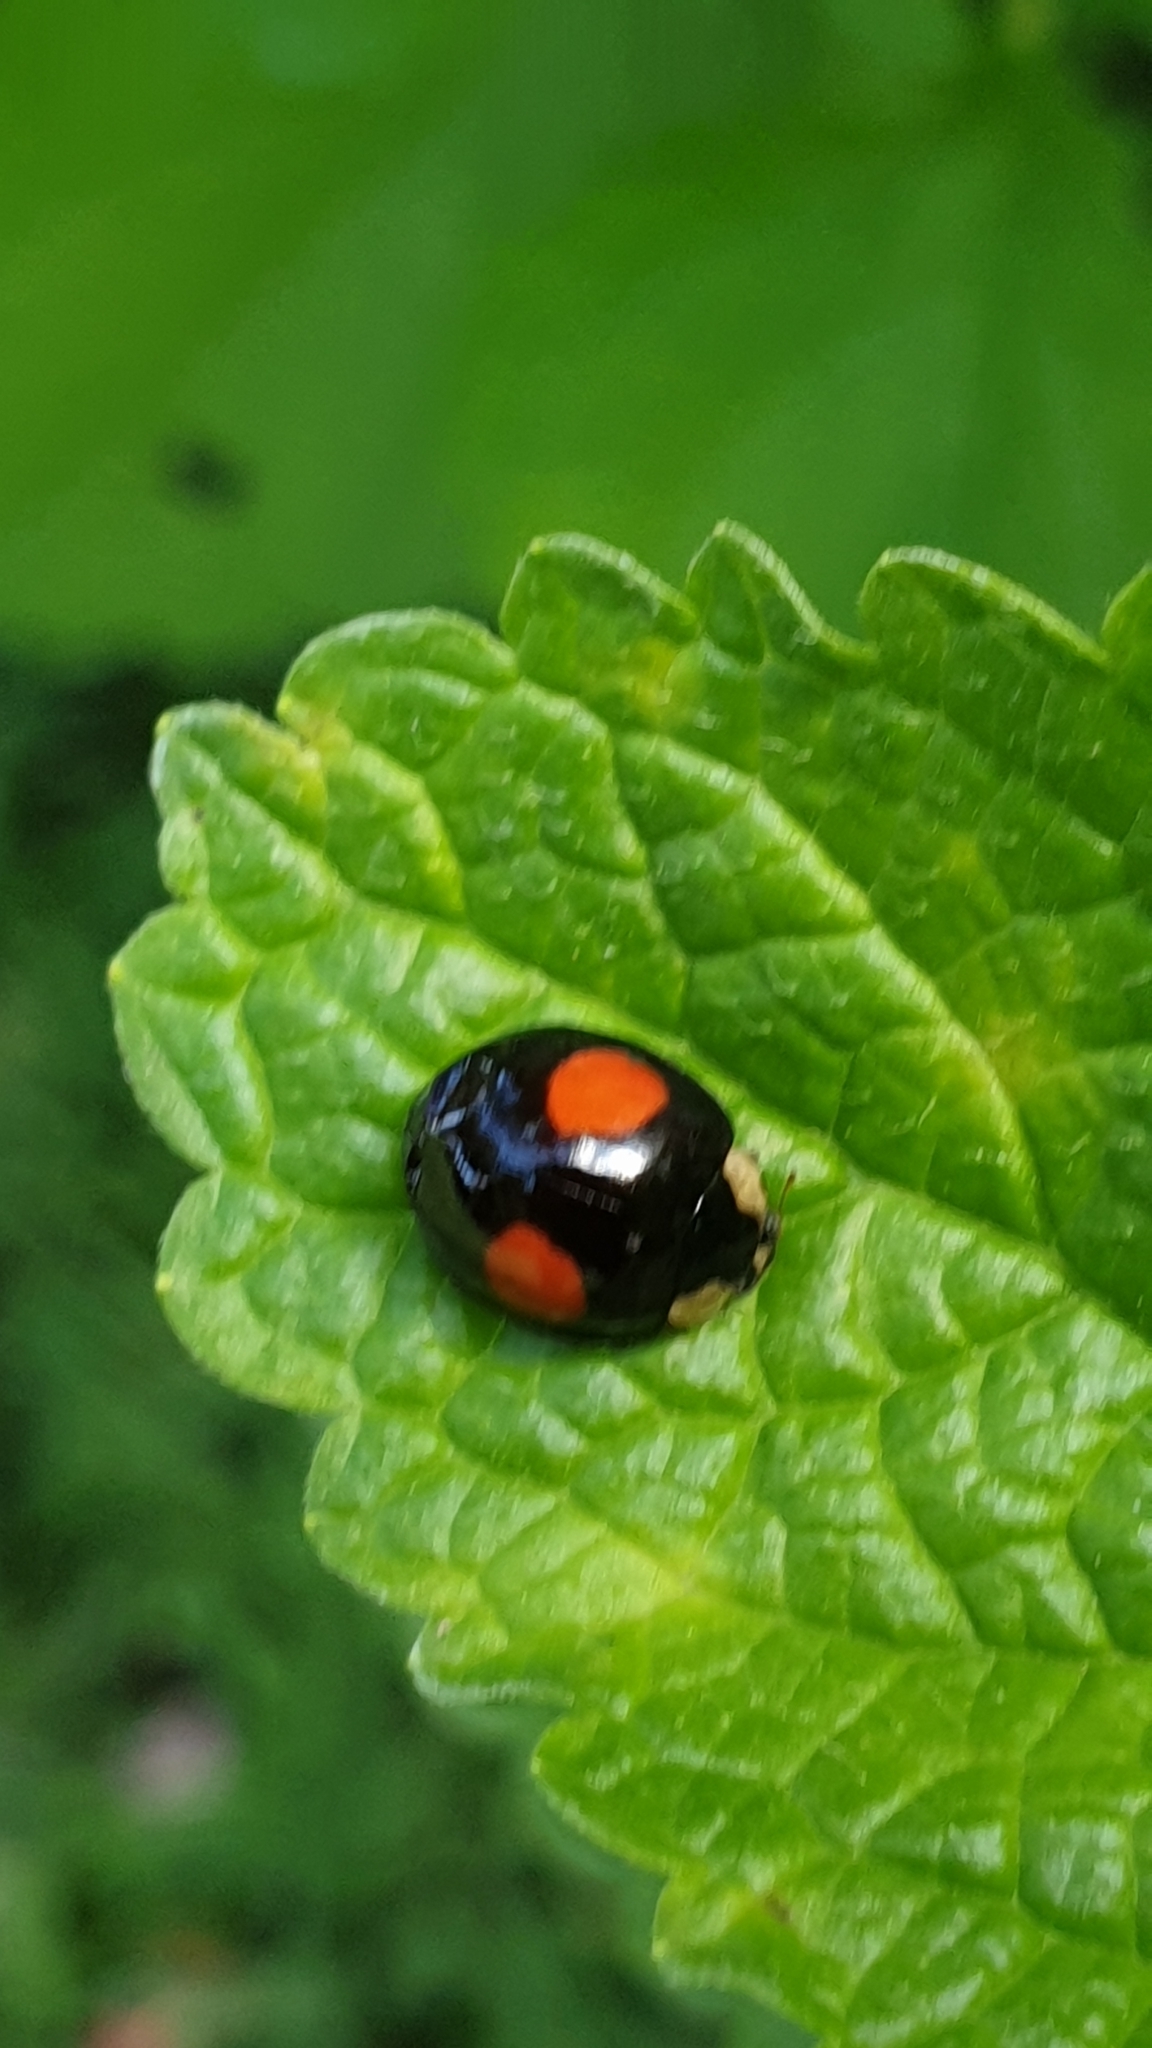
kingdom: Animalia
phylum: Arthropoda
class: Insecta
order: Coleoptera
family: Coccinellidae
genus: Harmonia
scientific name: Harmonia axyridis
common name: Harlequin ladybird
